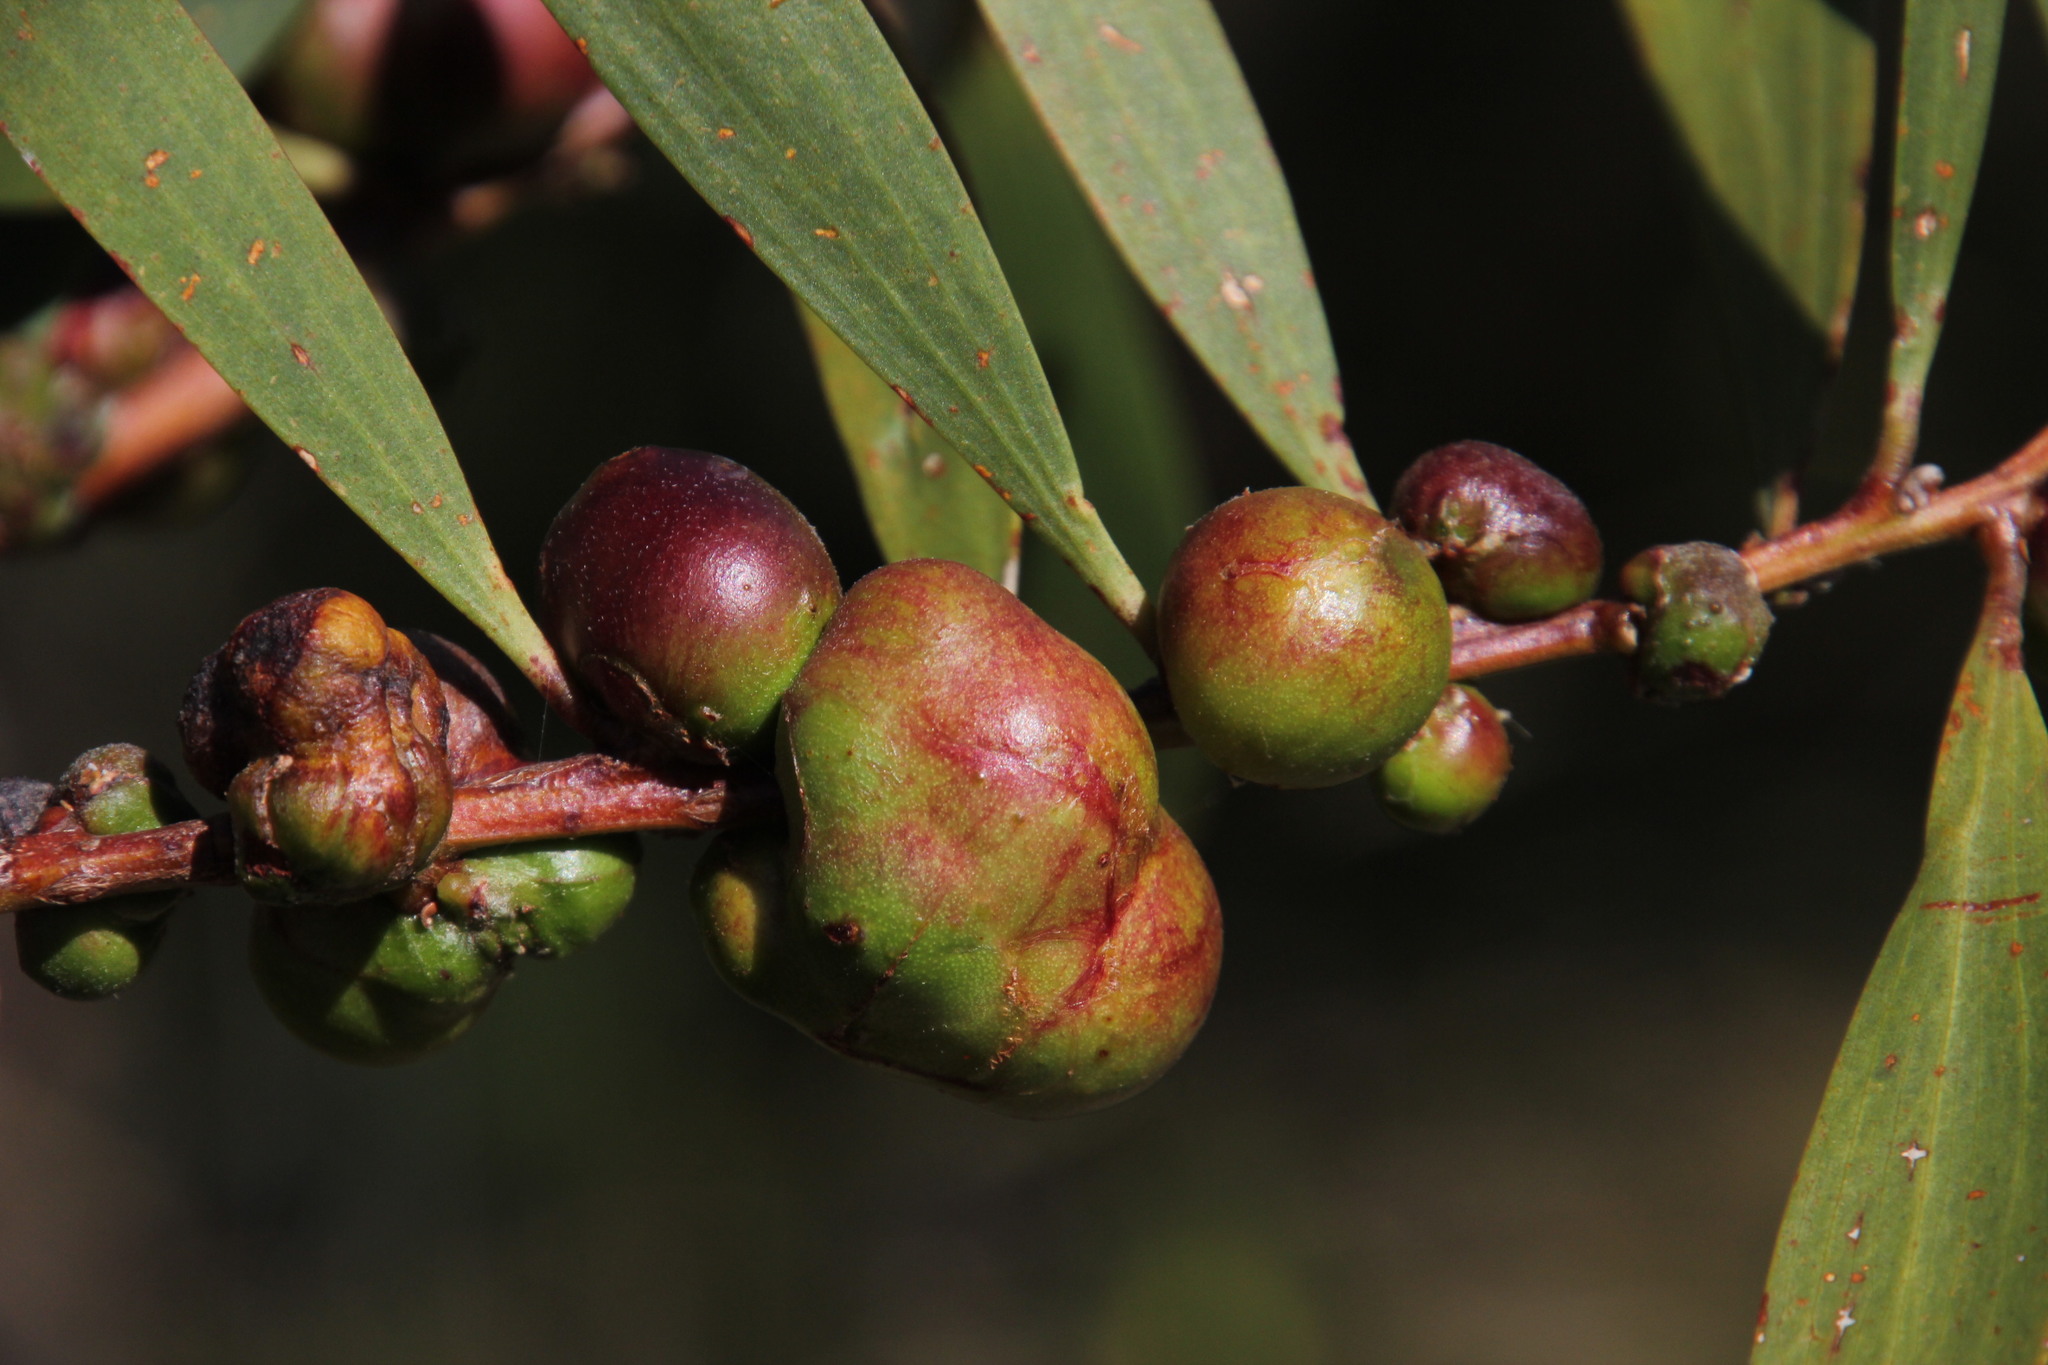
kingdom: Plantae
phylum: Tracheophyta
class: Magnoliopsida
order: Fabales
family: Fabaceae
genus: Acacia
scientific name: Acacia longifolia
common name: Sydney golden wattle
